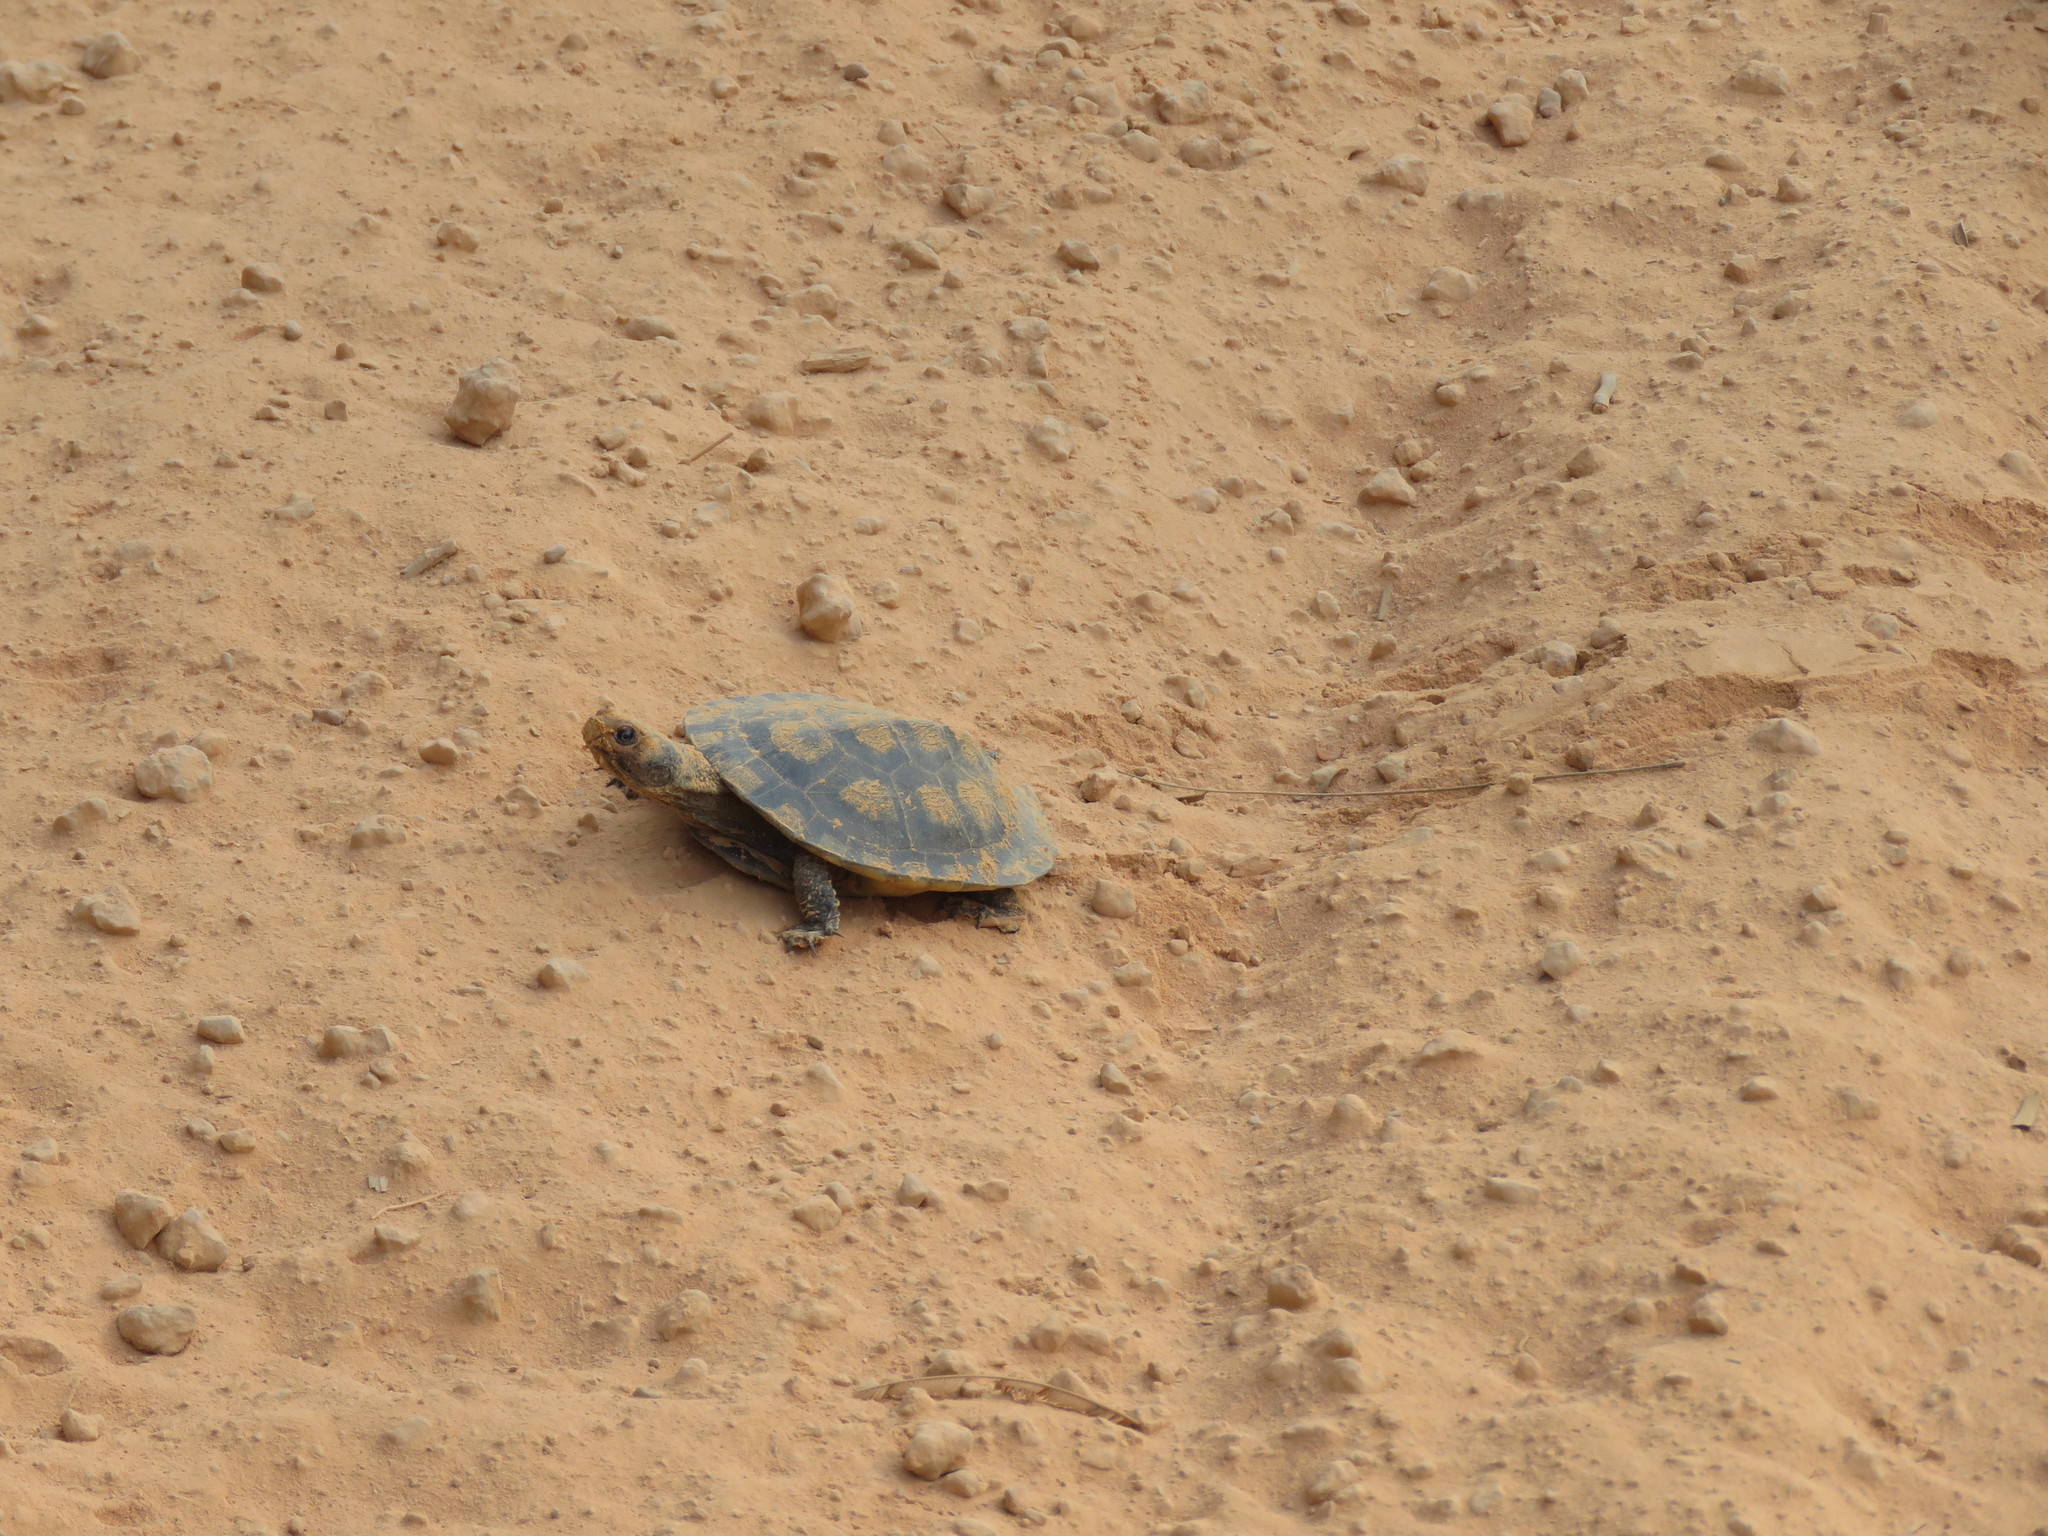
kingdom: Animalia
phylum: Chordata
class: Testudines
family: Chelidae
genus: Mesoclemmys
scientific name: Mesoclemmys raniceps
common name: Amazon toad-headed turtle
